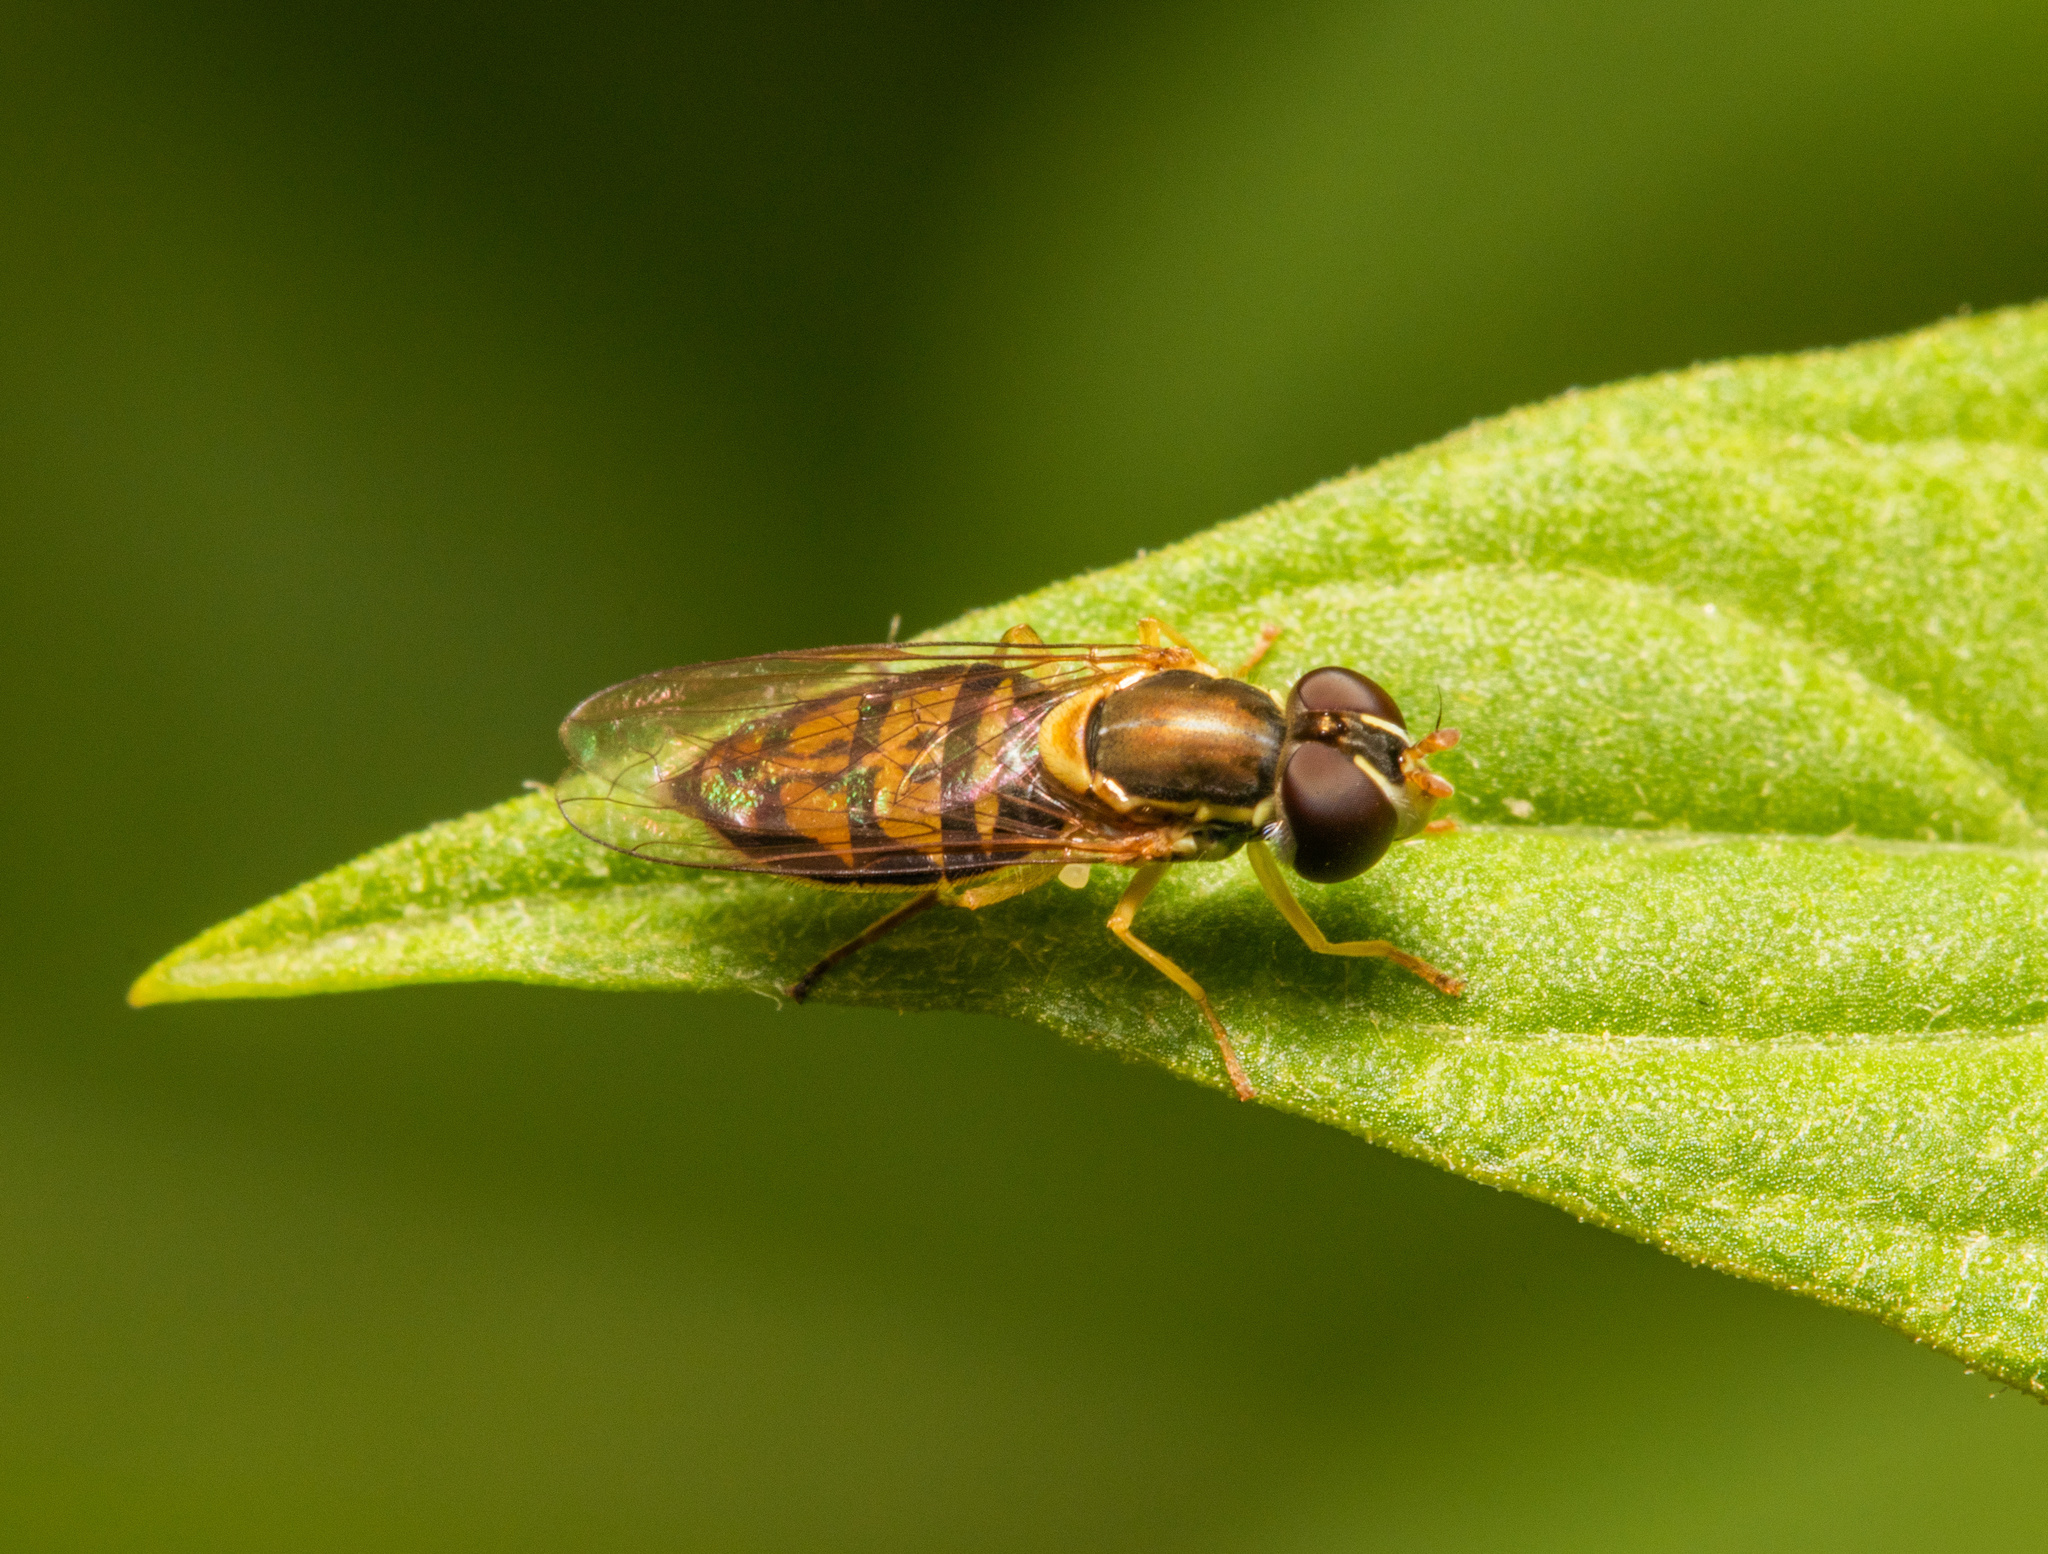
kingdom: Animalia
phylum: Arthropoda
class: Insecta
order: Diptera
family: Syrphidae
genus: Toxomerus
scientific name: Toxomerus marginatus
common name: Syrphid fly
